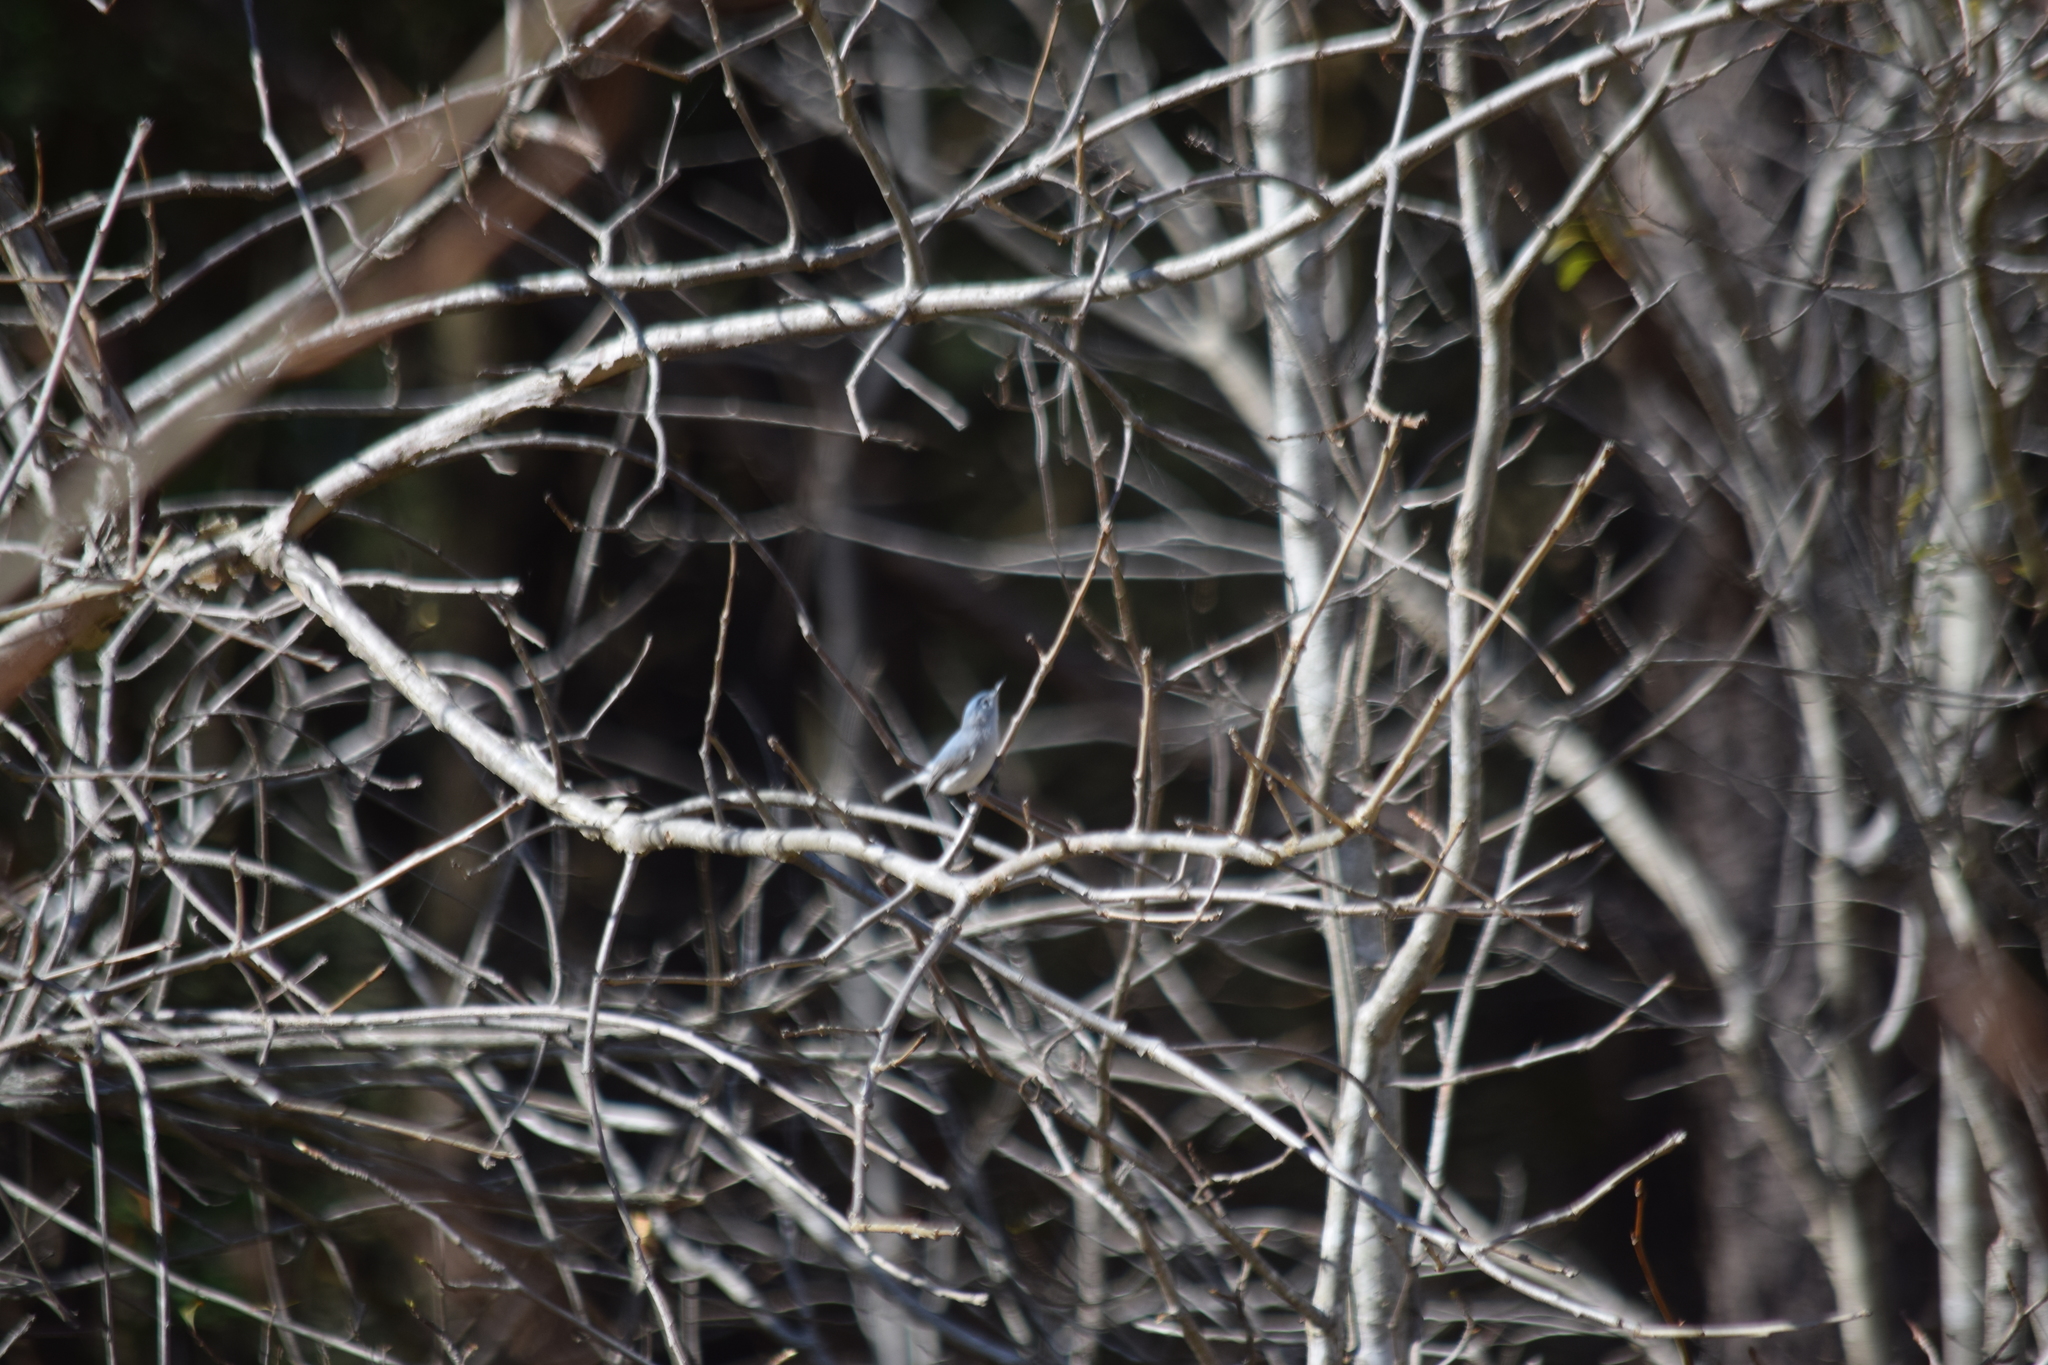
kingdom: Animalia
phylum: Chordata
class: Aves
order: Passeriformes
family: Polioptilidae
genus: Polioptila
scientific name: Polioptila caerulea
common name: Blue-gray gnatcatcher
